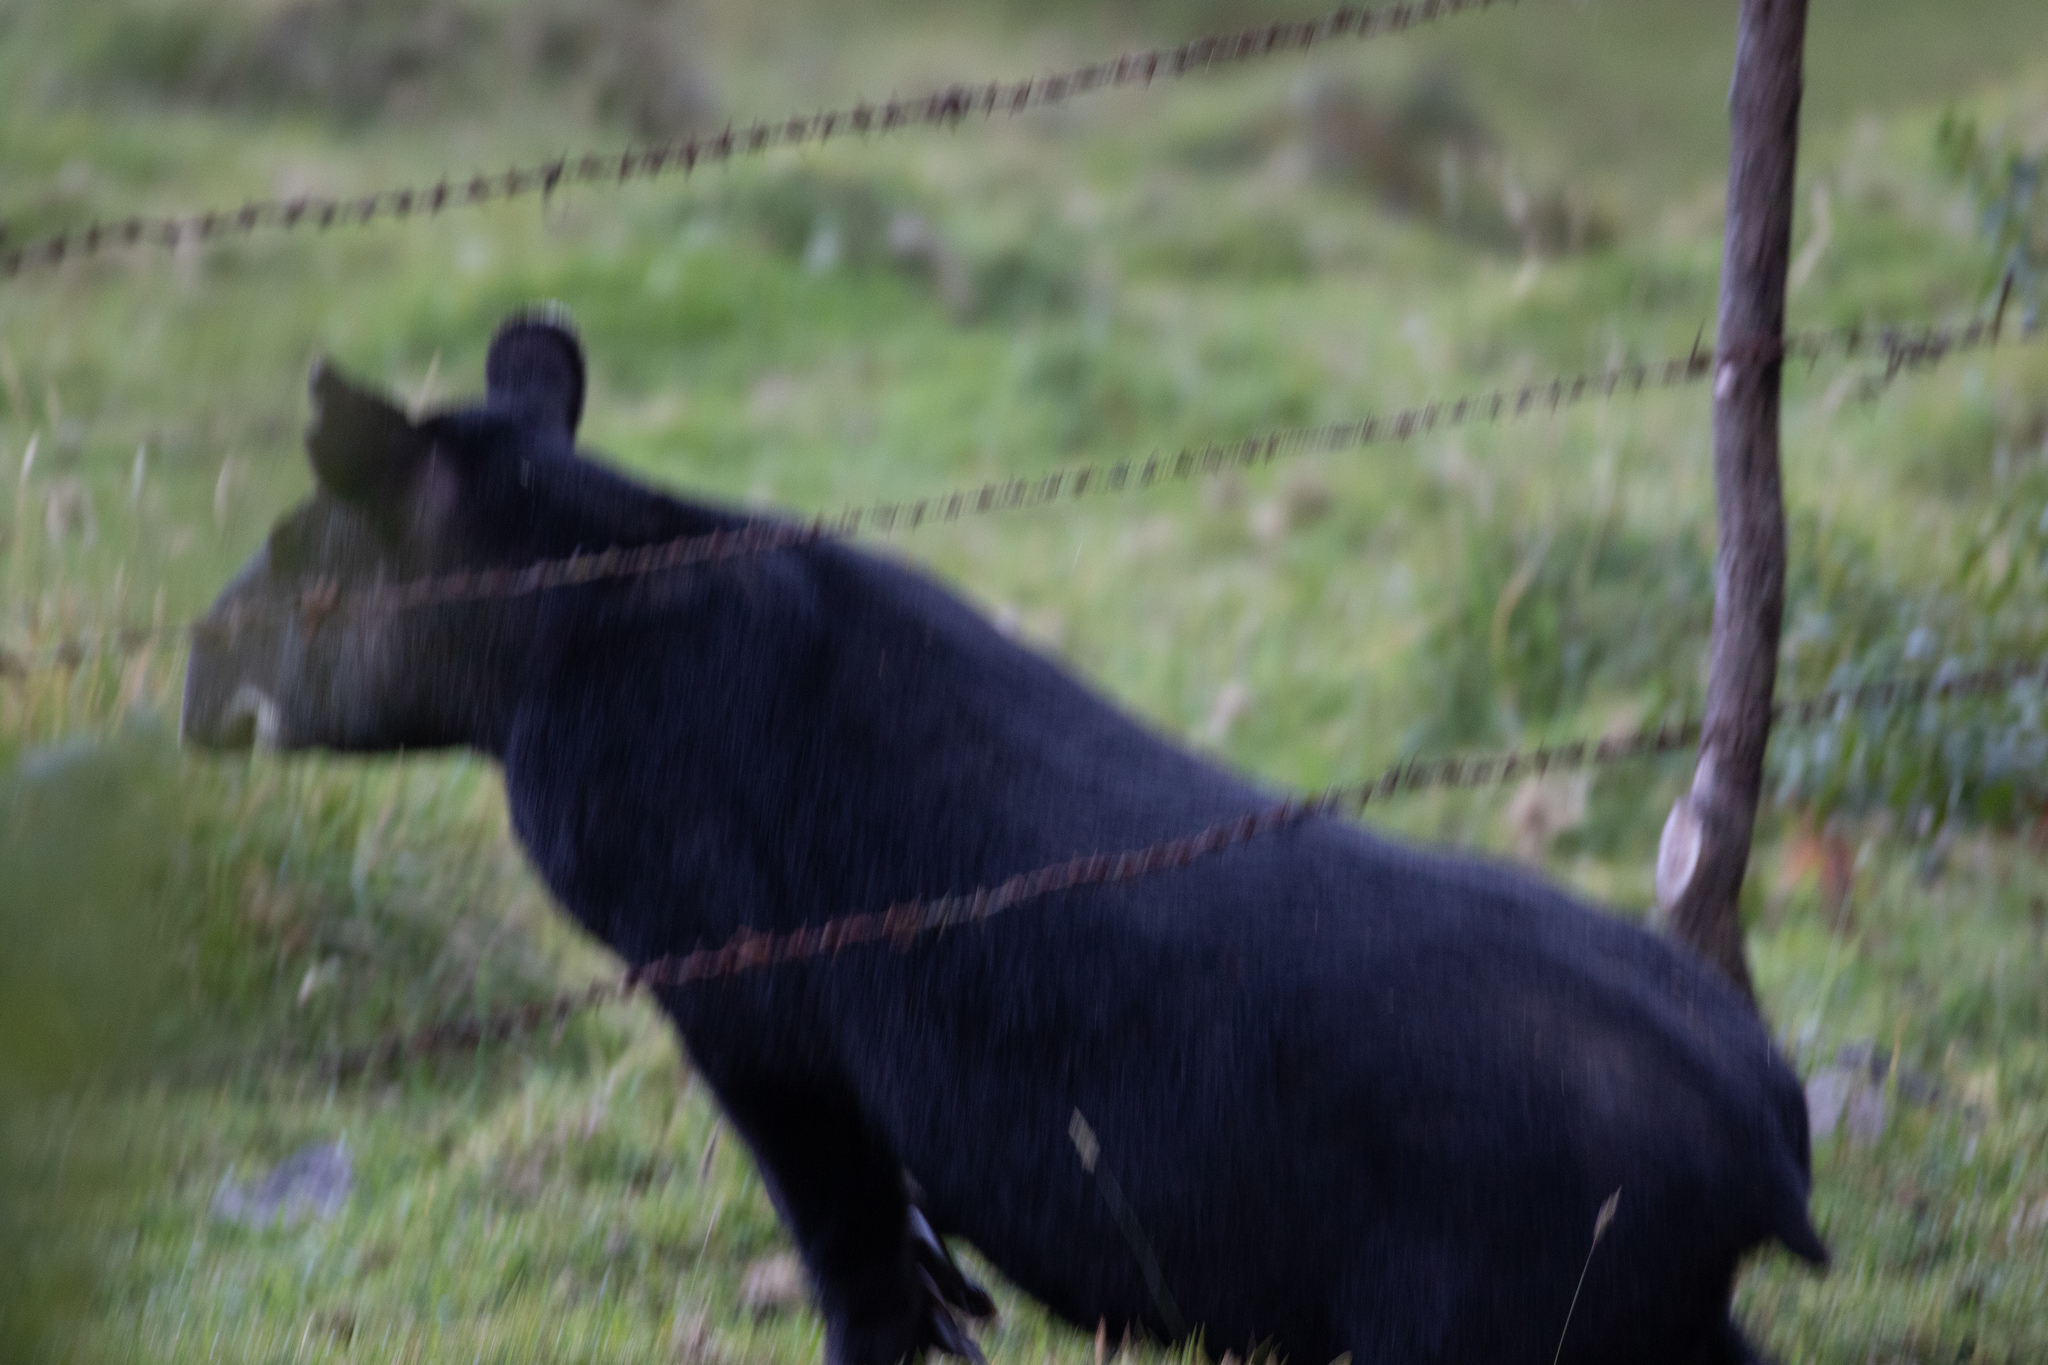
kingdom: Animalia
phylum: Chordata
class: Mammalia
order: Perissodactyla
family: Tapiridae
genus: Tapirus
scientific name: Tapirus pinchaque
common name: Mountain tapir
